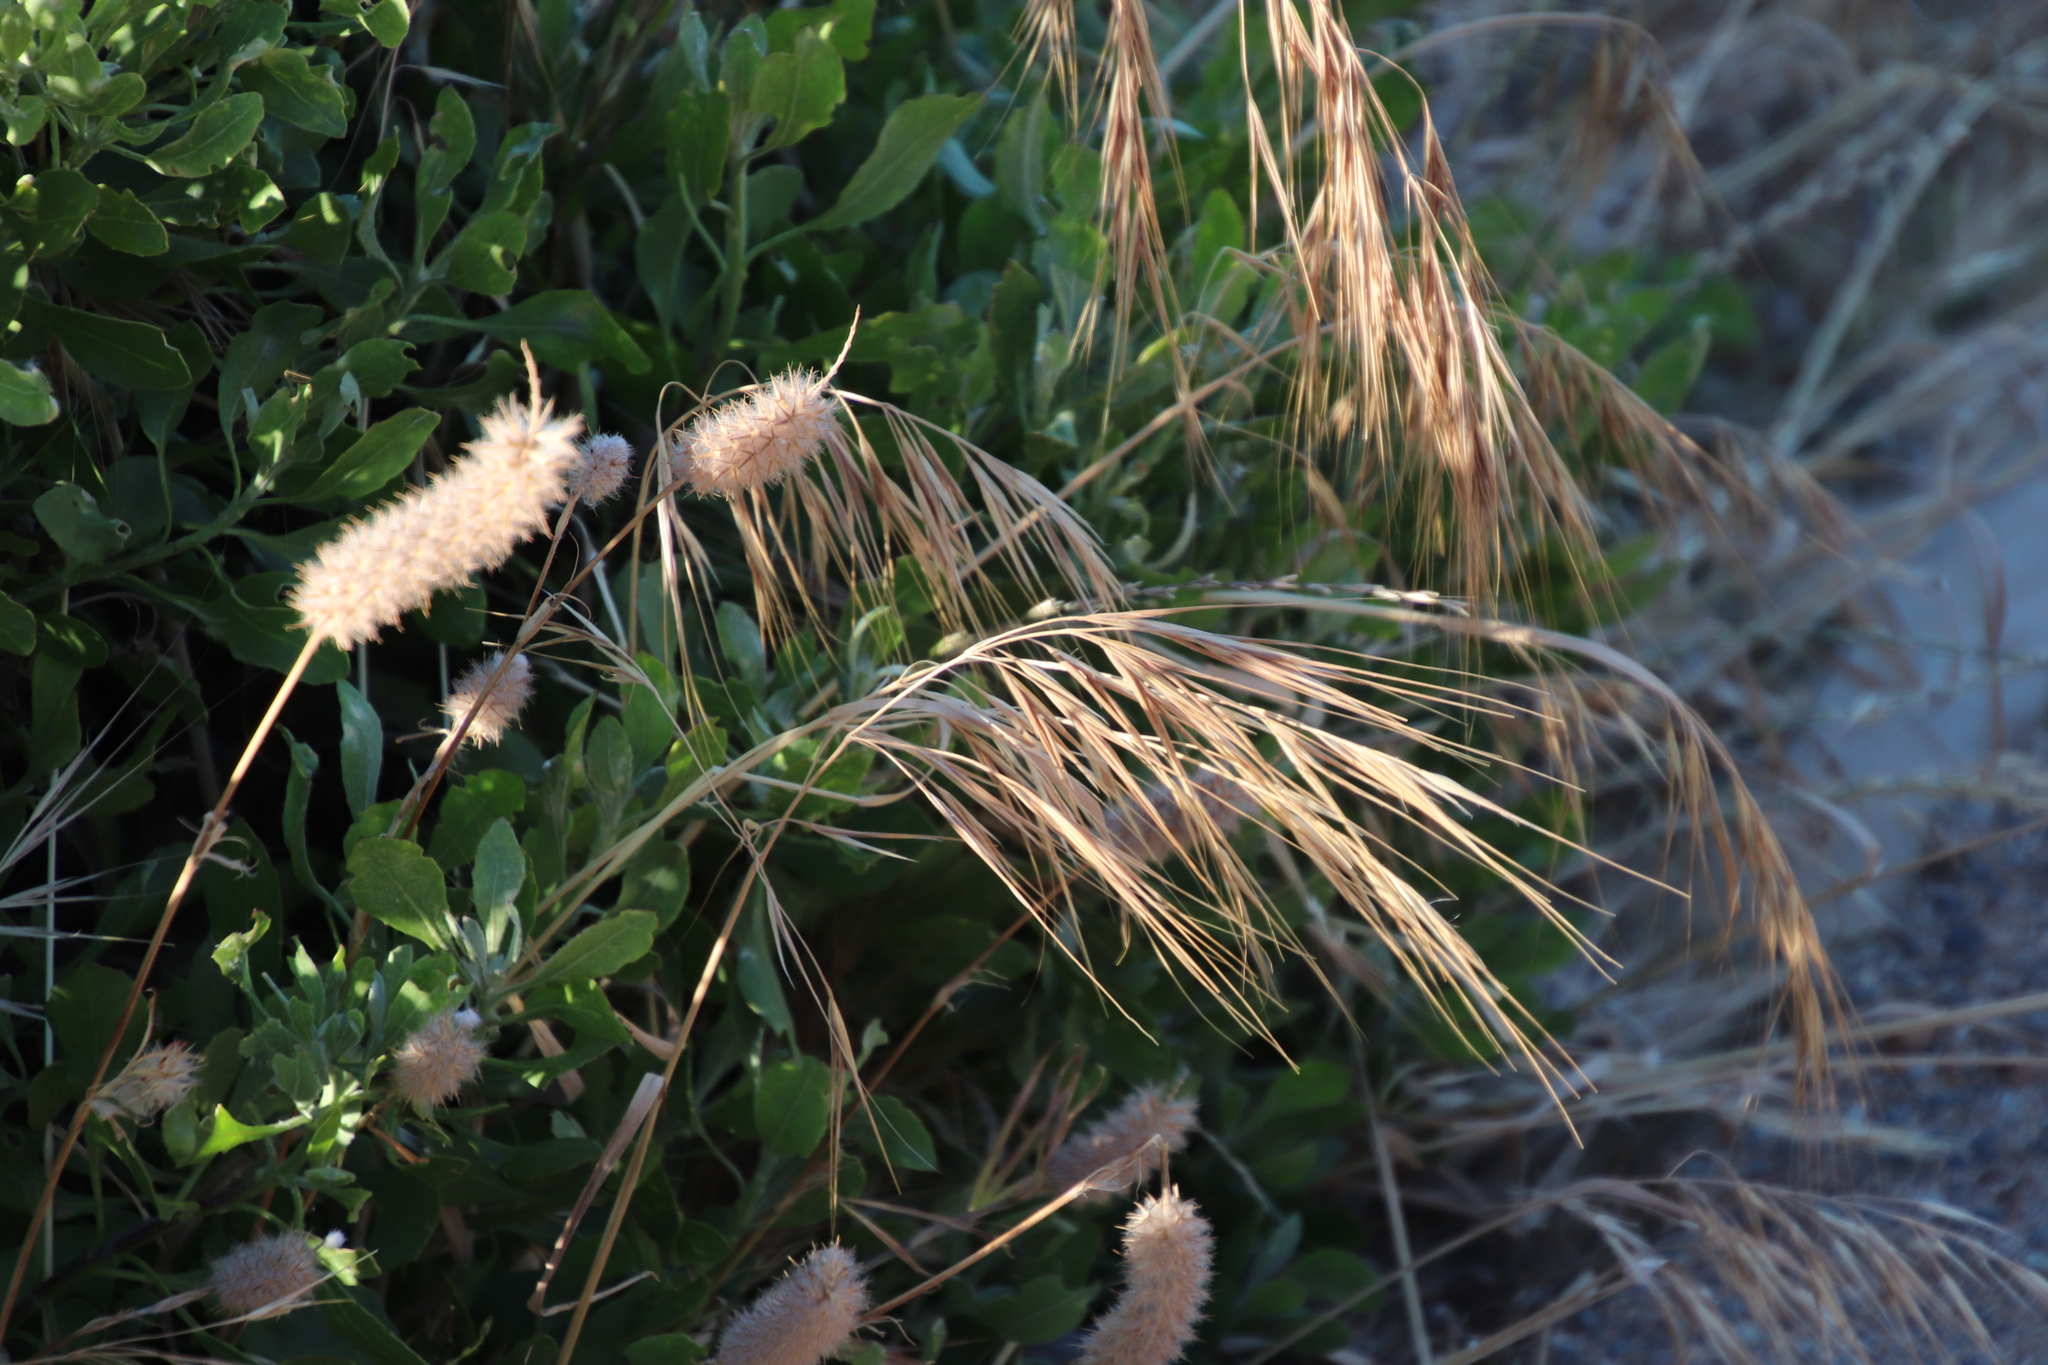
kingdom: Plantae
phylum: Tracheophyta
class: Magnoliopsida
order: Fabales
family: Fabaceae
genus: Trifolium
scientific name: Trifolium angustifolium
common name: Narrow clover
